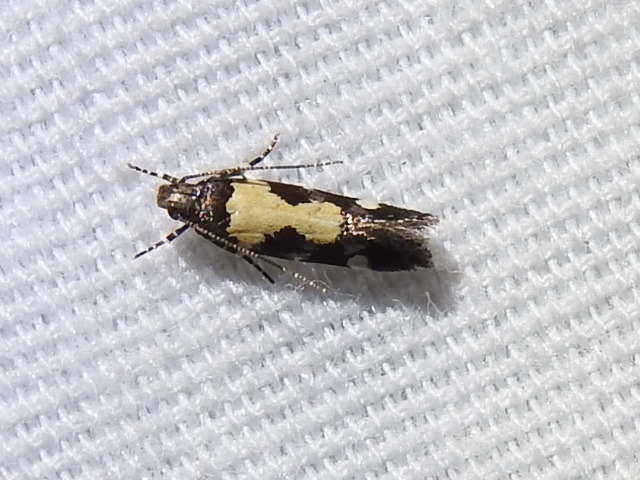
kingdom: Animalia
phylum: Arthropoda
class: Insecta
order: Lepidoptera
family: Gelechiidae
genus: Stegasta
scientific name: Stegasta bosqueella
